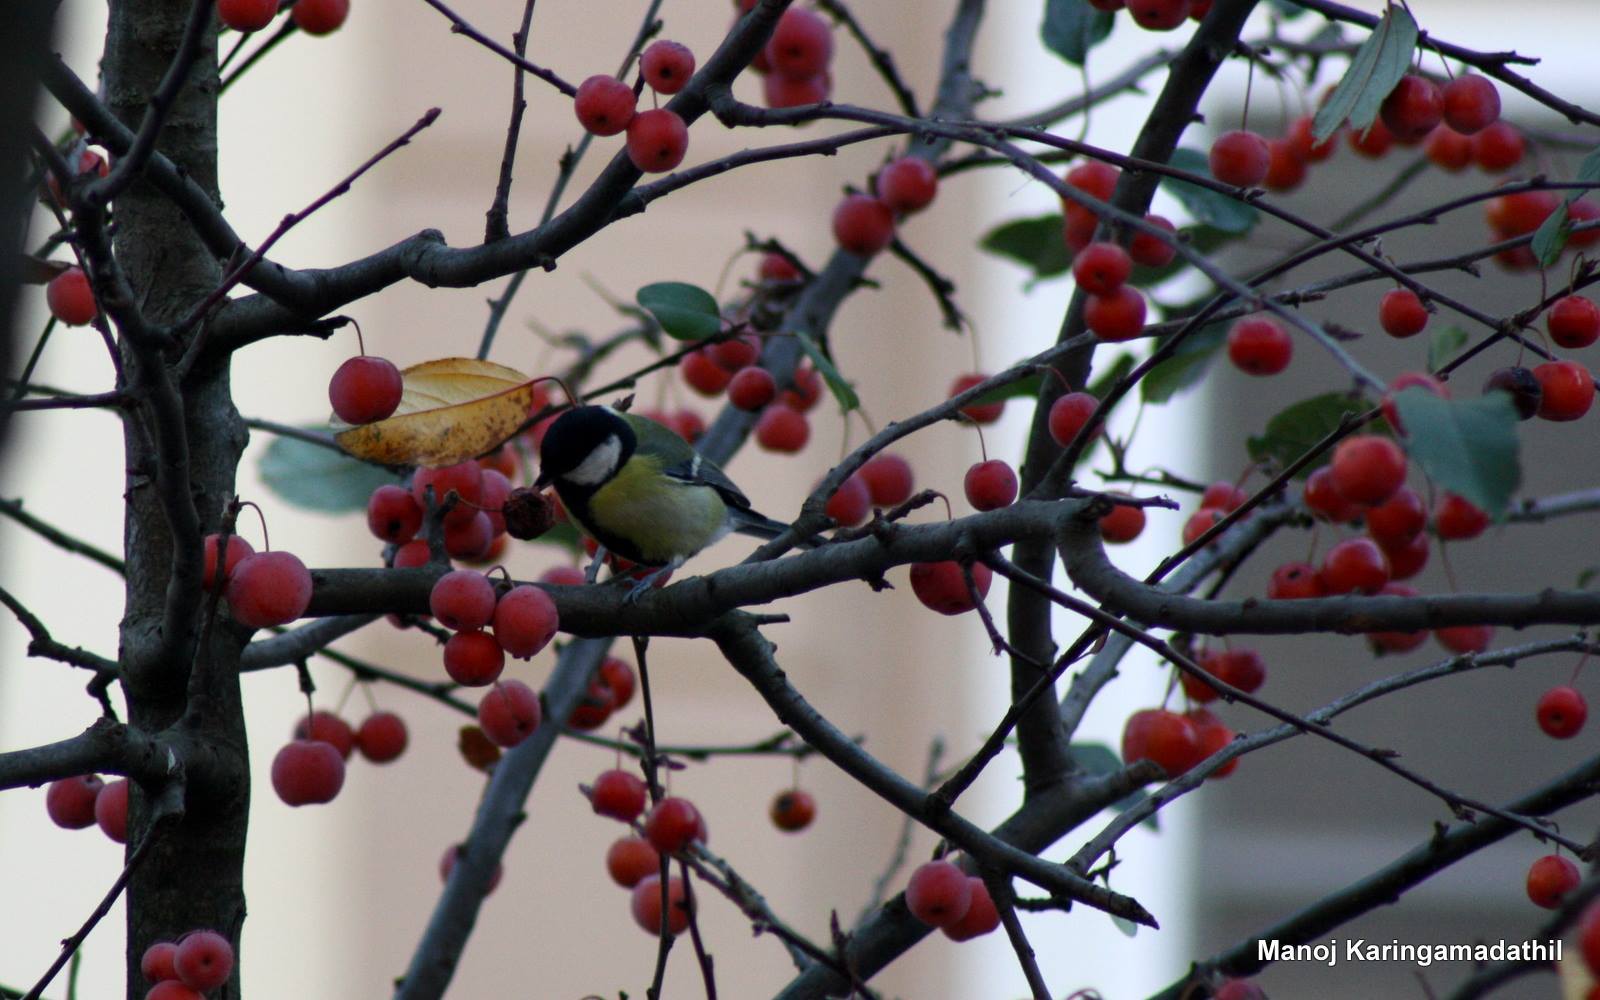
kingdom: Animalia
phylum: Chordata
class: Aves
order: Passeriformes
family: Paridae
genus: Parus
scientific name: Parus major
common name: Great tit
